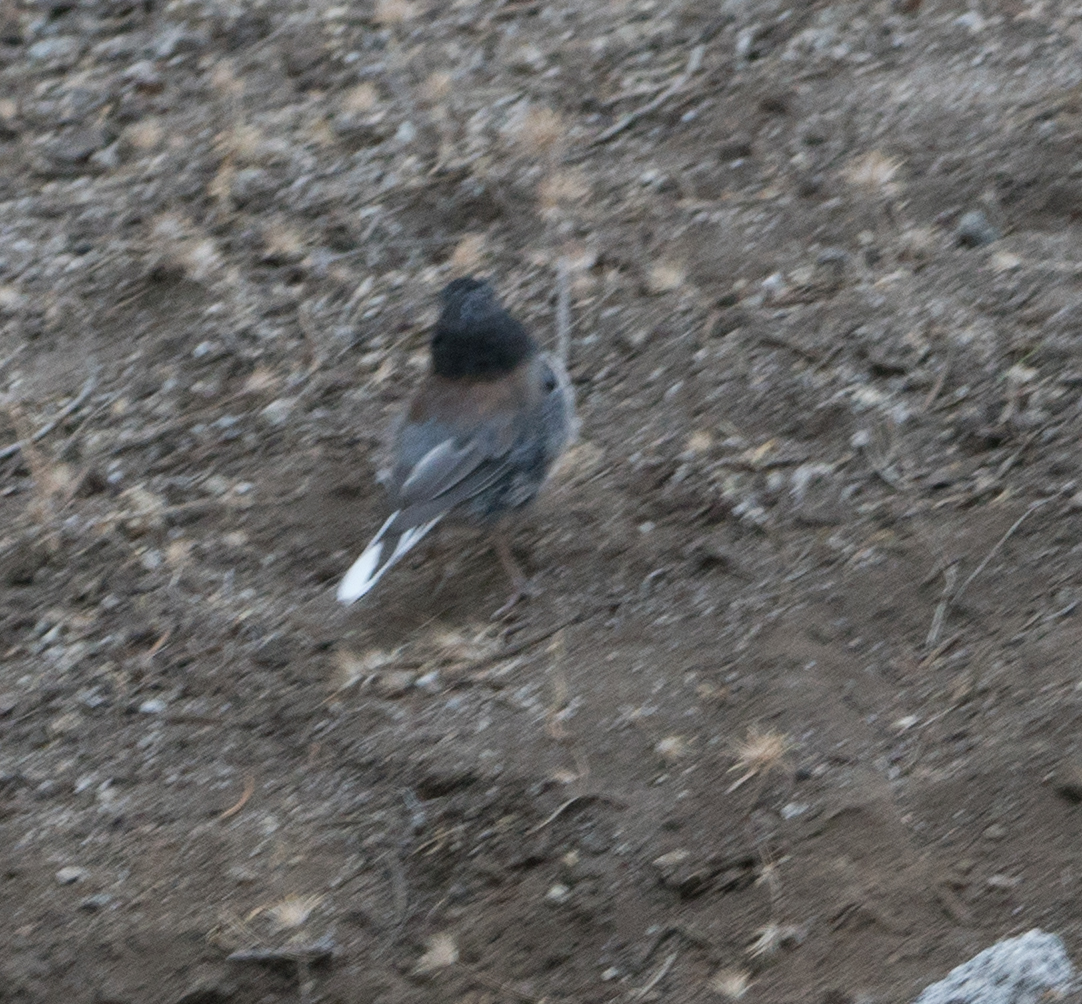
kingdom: Animalia
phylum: Chordata
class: Aves
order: Passeriformes
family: Passerellidae
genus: Junco
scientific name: Junco hyemalis
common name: Dark-eyed junco
